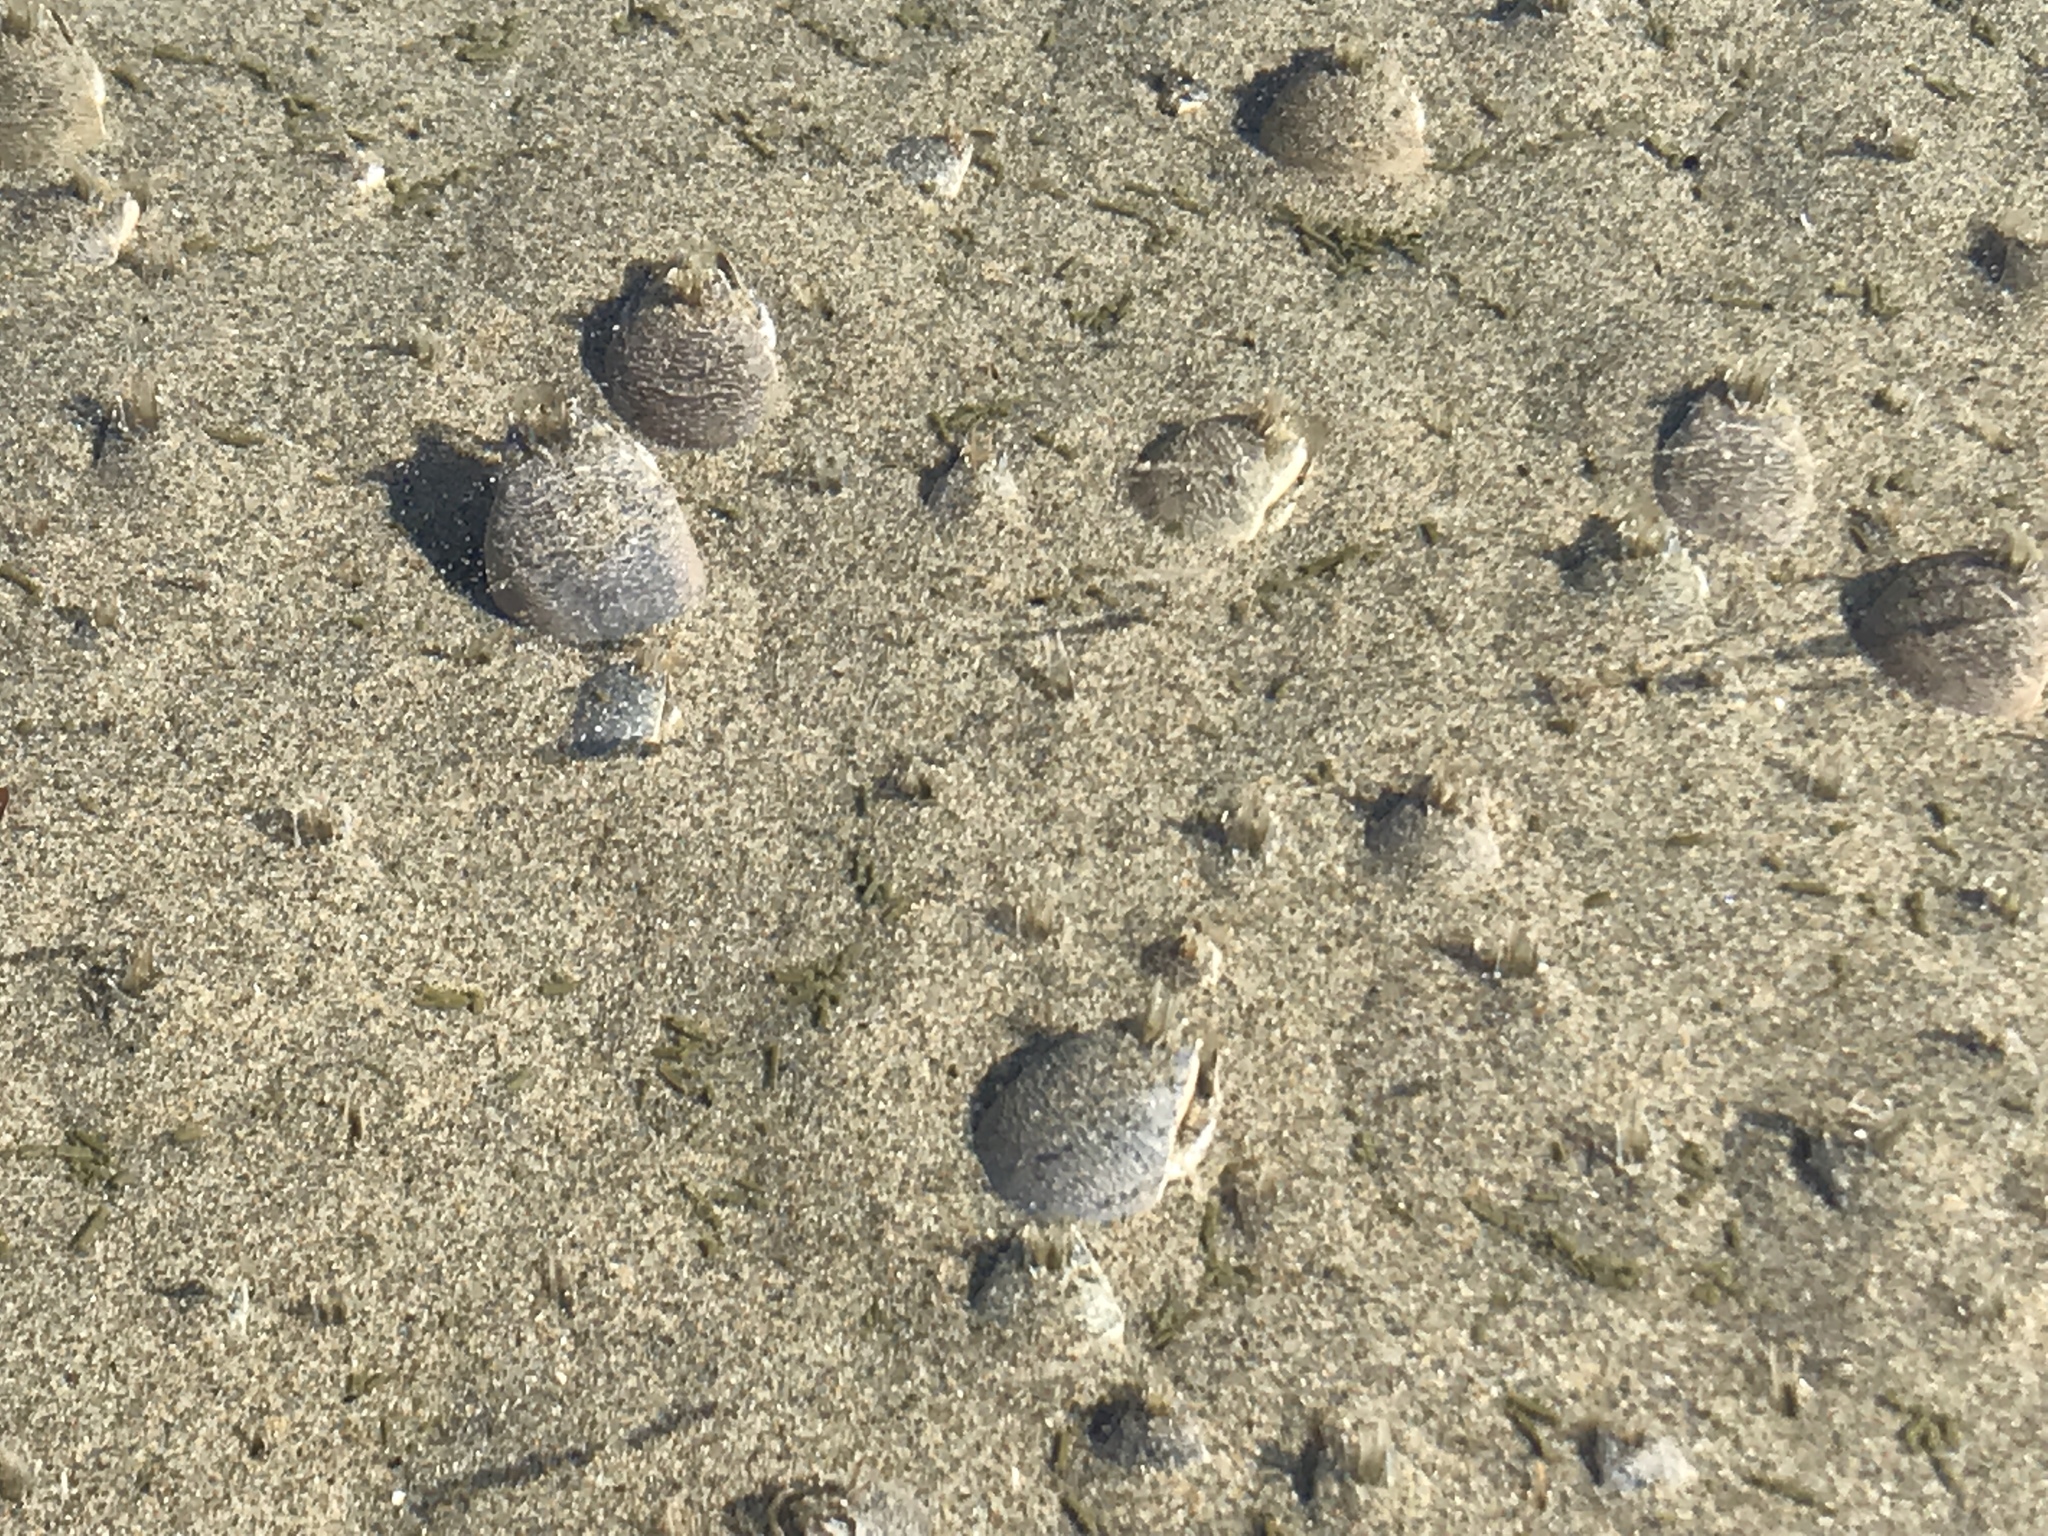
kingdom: Animalia
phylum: Arthropoda
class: Malacostraca
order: Decapoda
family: Hippidae
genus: Emerita
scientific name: Emerita analoga
